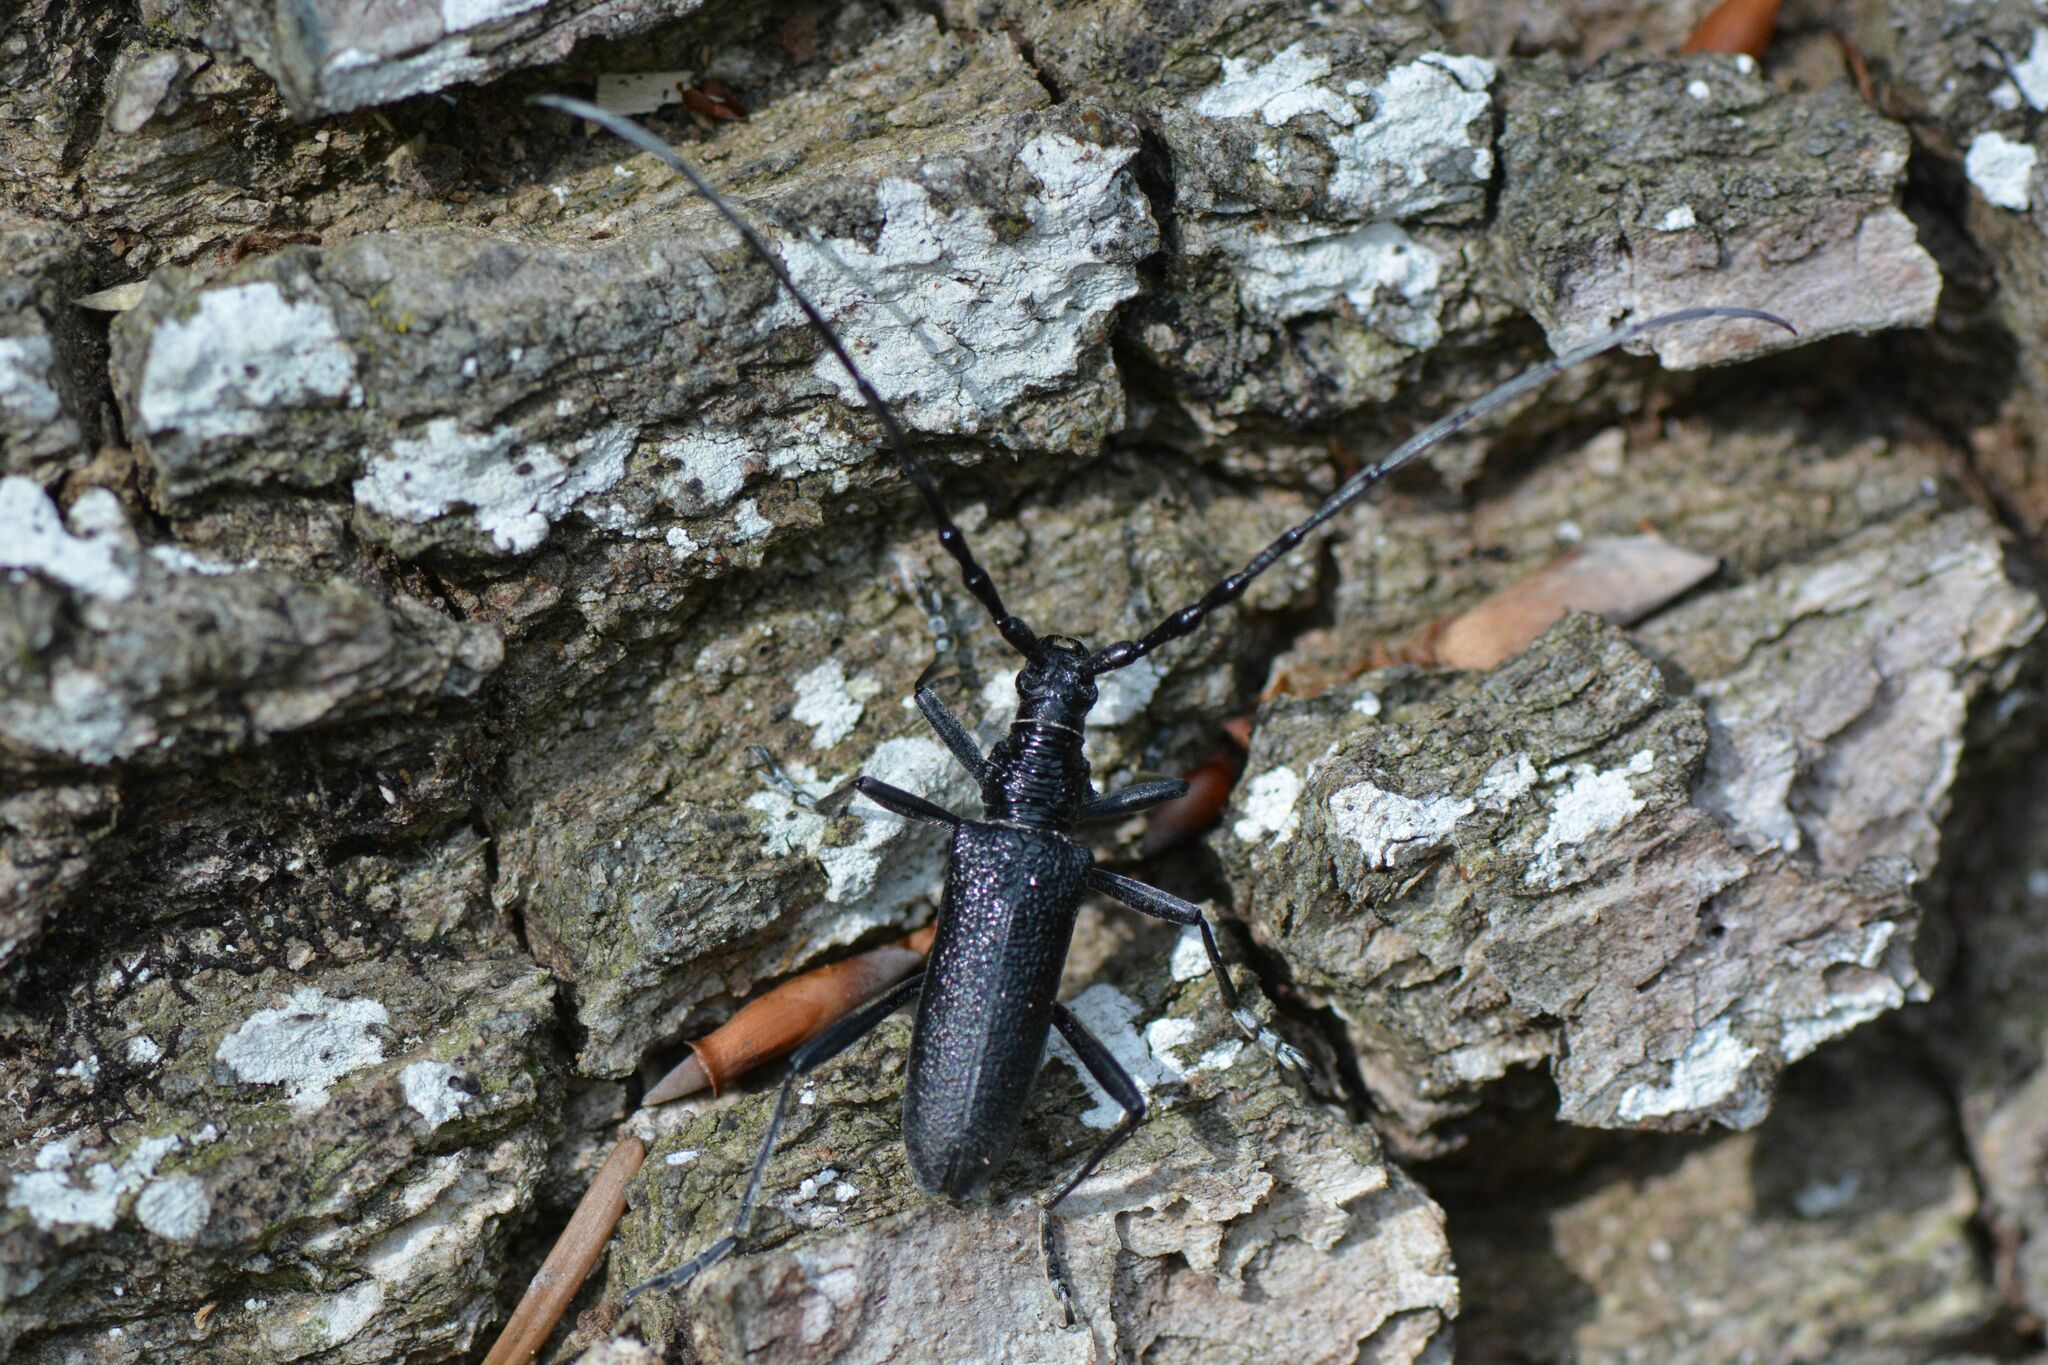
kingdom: Animalia
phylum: Arthropoda
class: Insecta
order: Coleoptera
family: Cerambycidae
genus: Cerambyx
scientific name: Cerambyx scopolii
